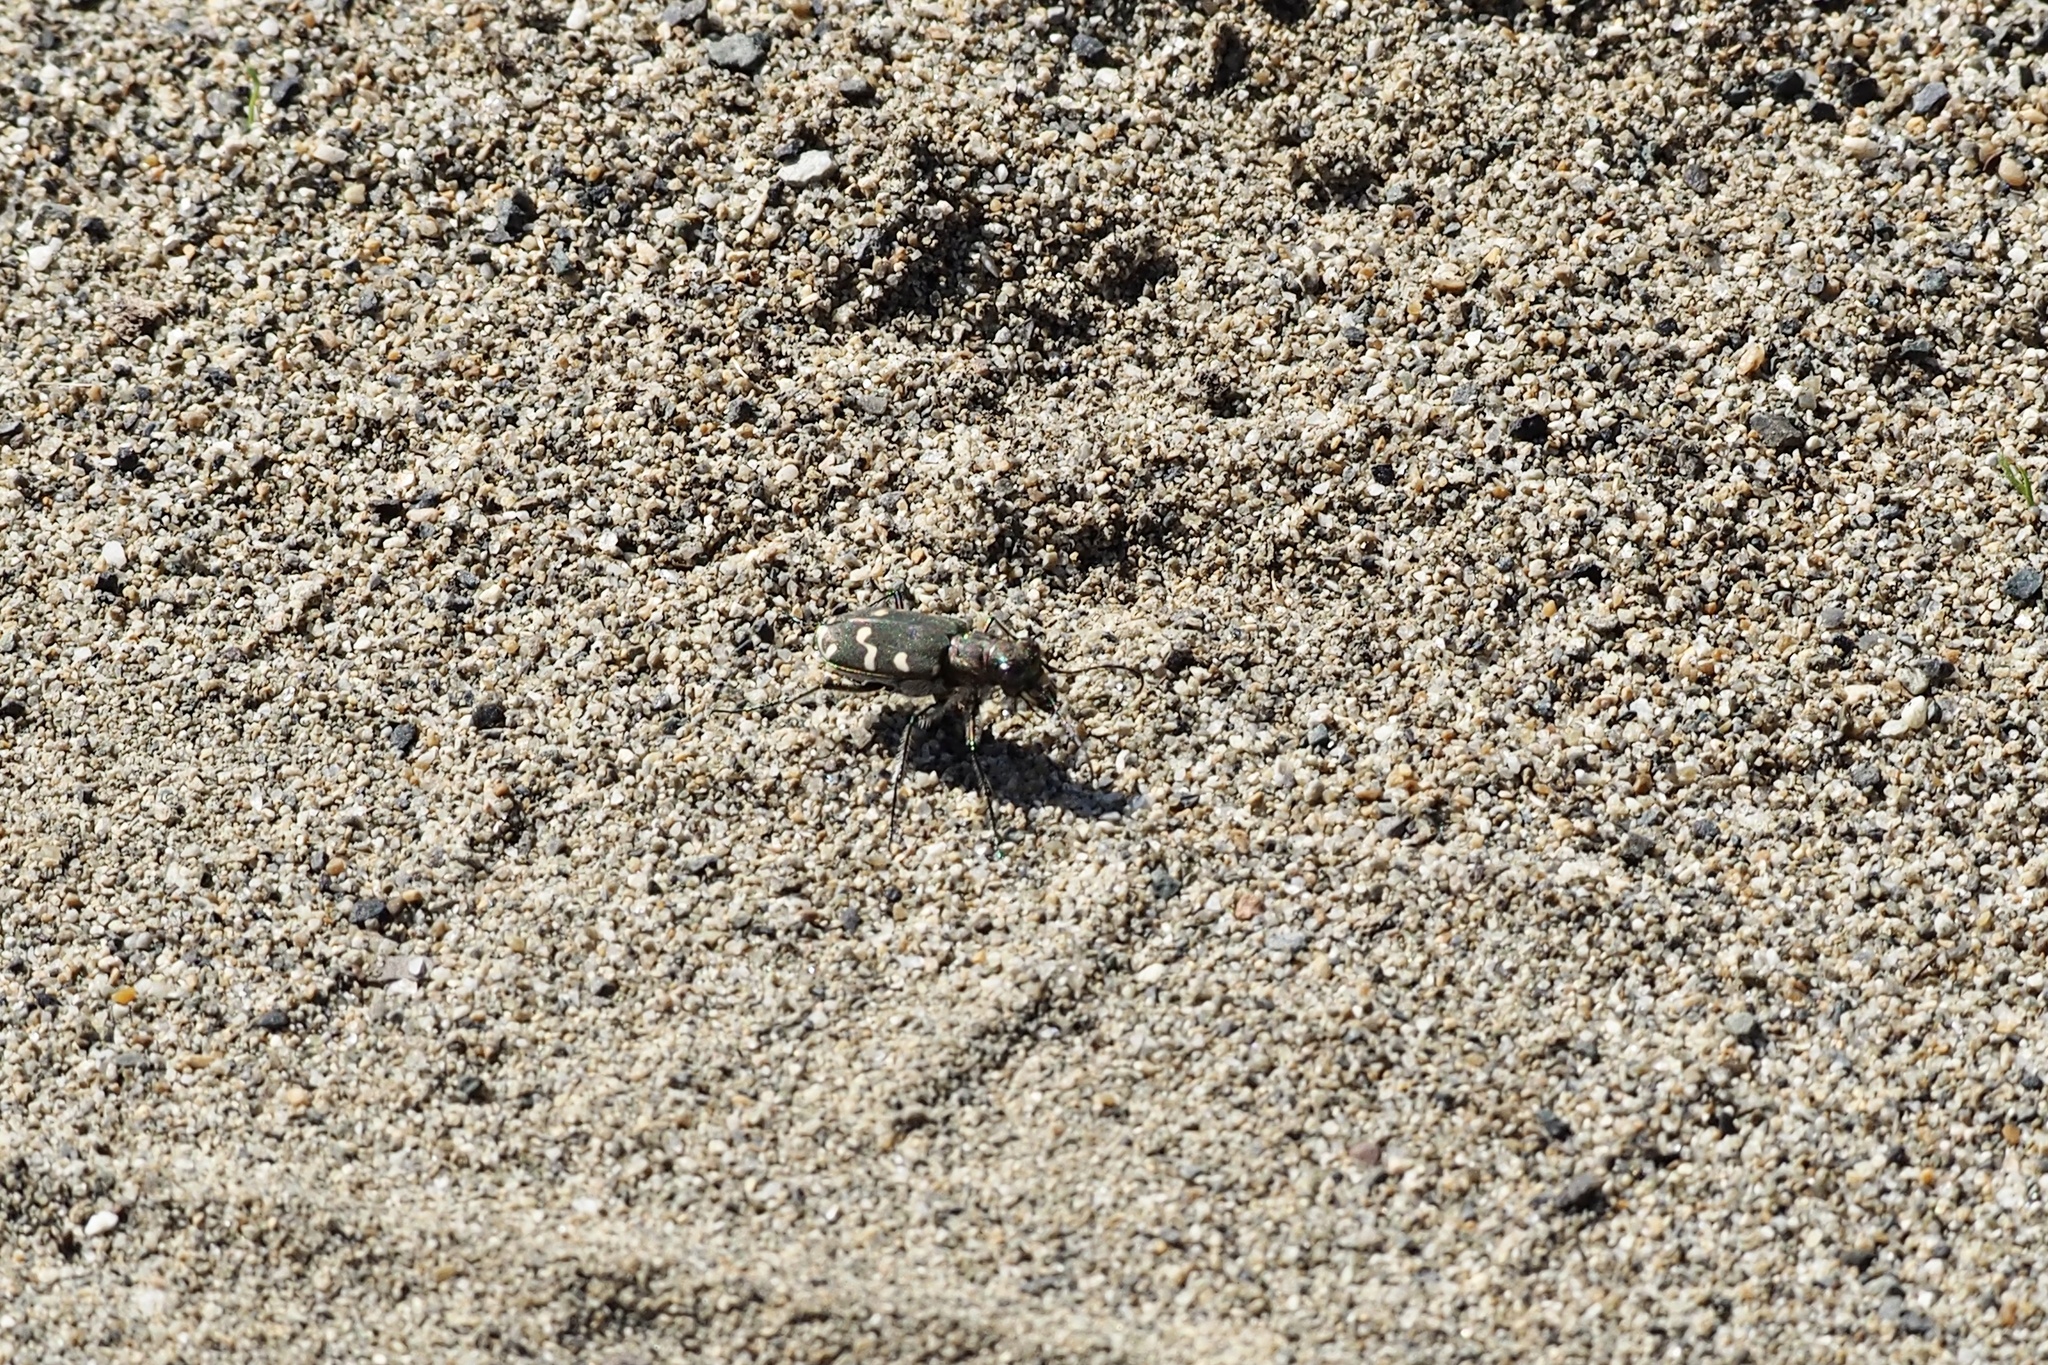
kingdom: Animalia
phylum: Arthropoda
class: Insecta
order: Coleoptera
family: Carabidae
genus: Cicindela
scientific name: Cicindela transbaicalica
